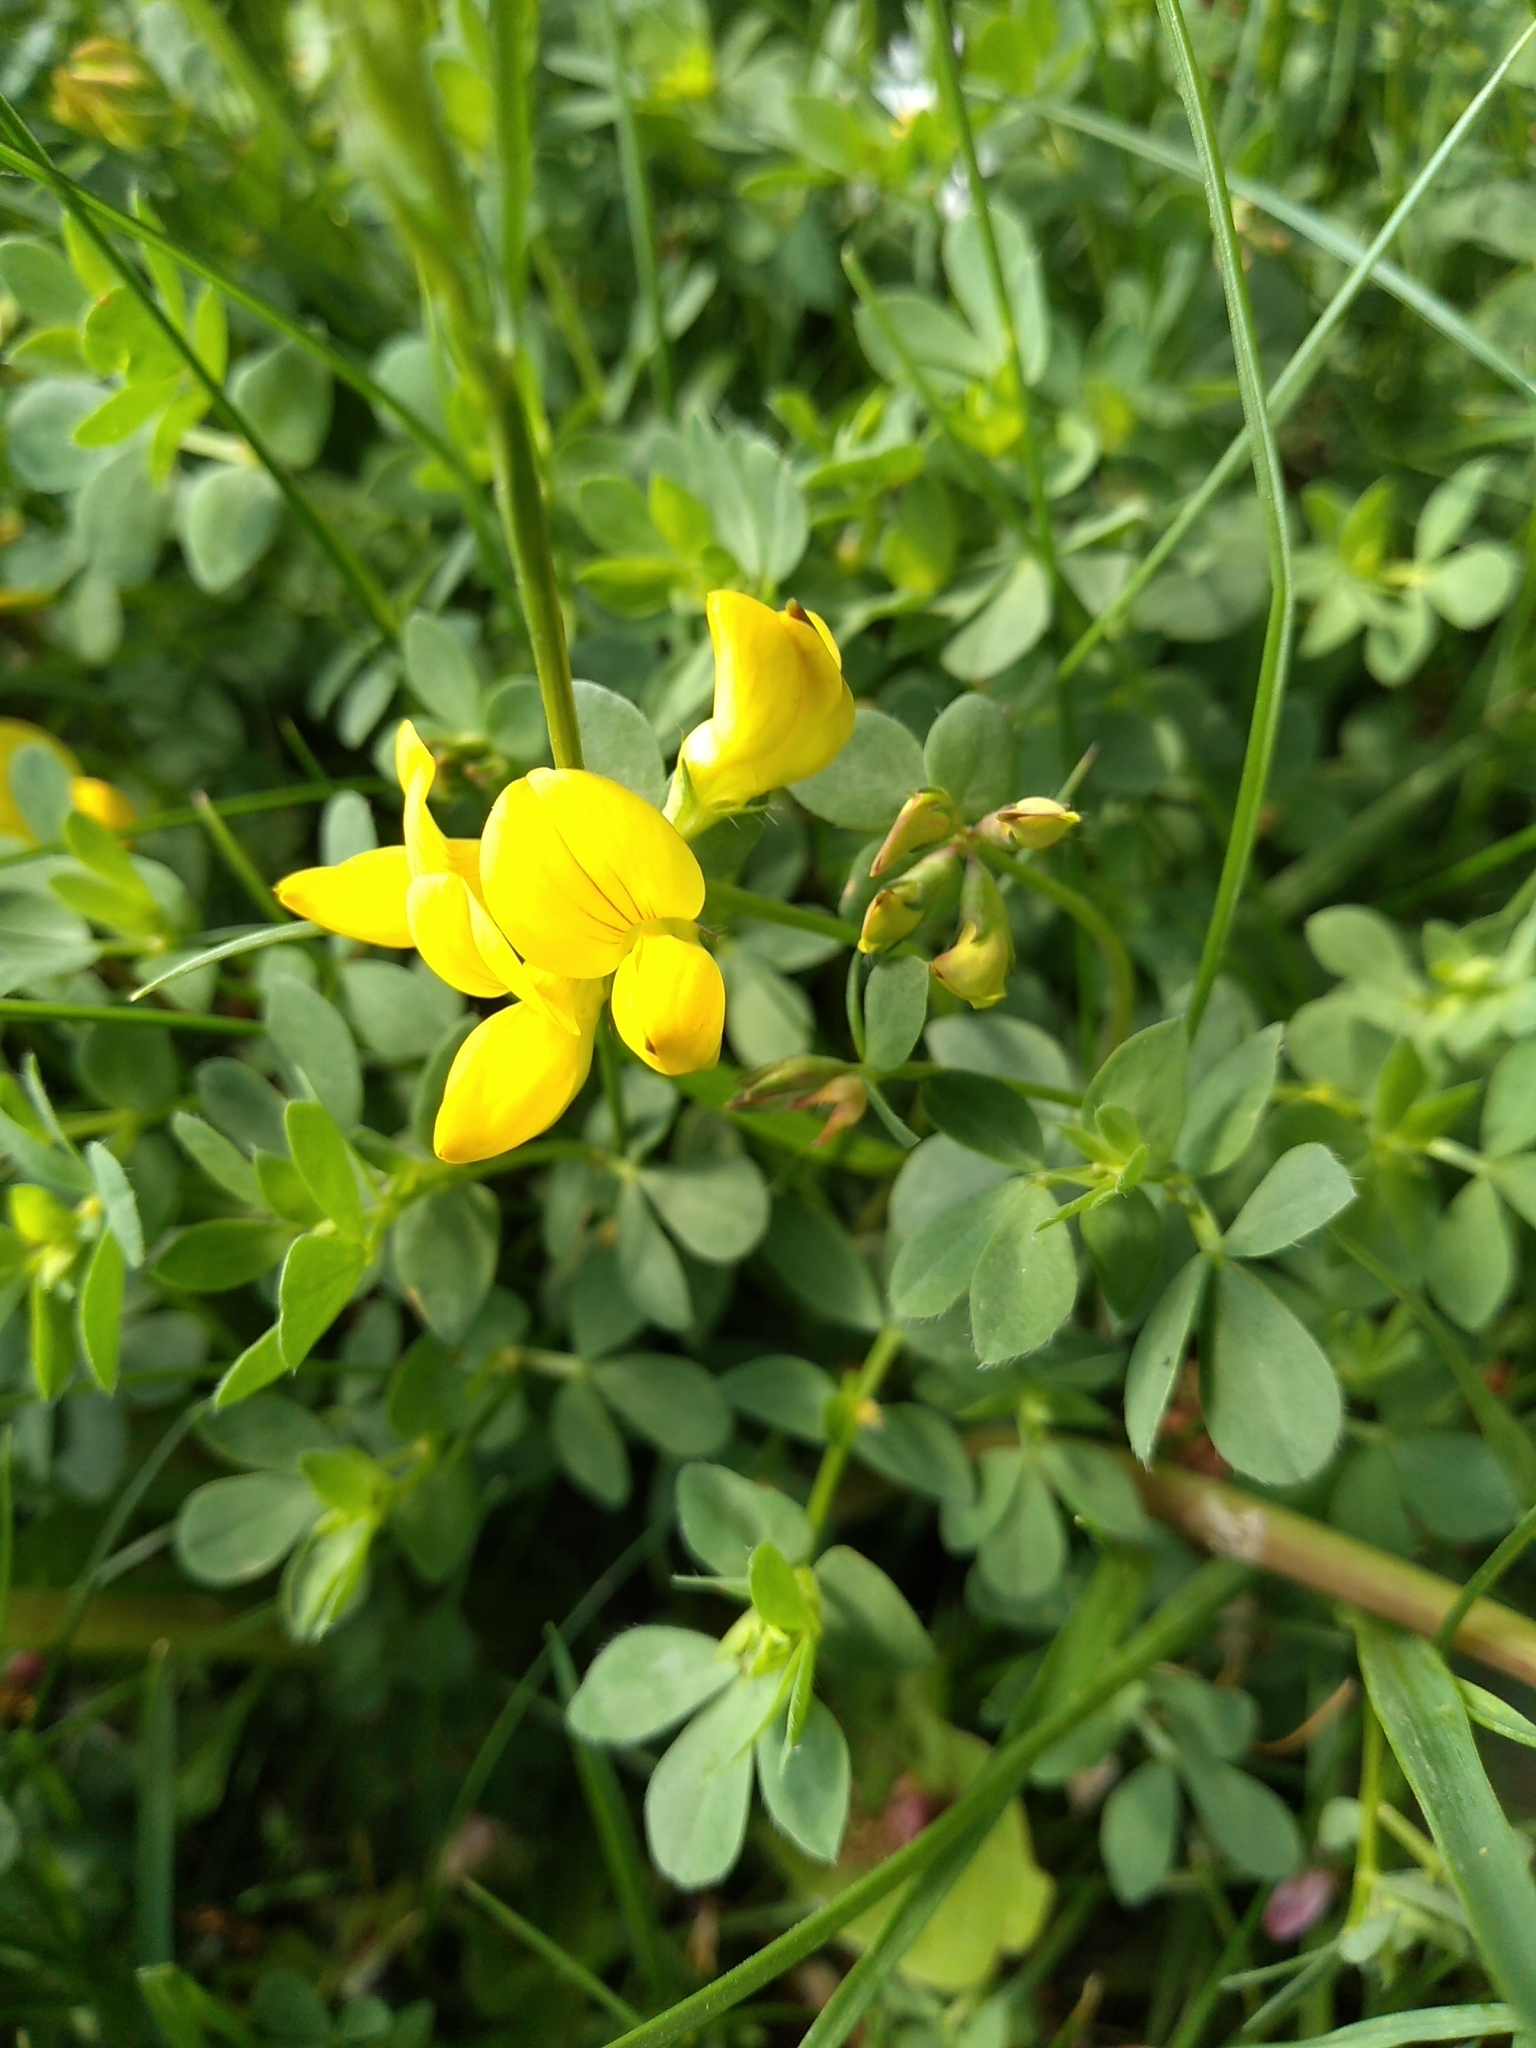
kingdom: Plantae
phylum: Tracheophyta
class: Magnoliopsida
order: Fabales
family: Fabaceae
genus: Lotus
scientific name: Lotus corniculatus
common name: Common bird's-foot-trefoil
